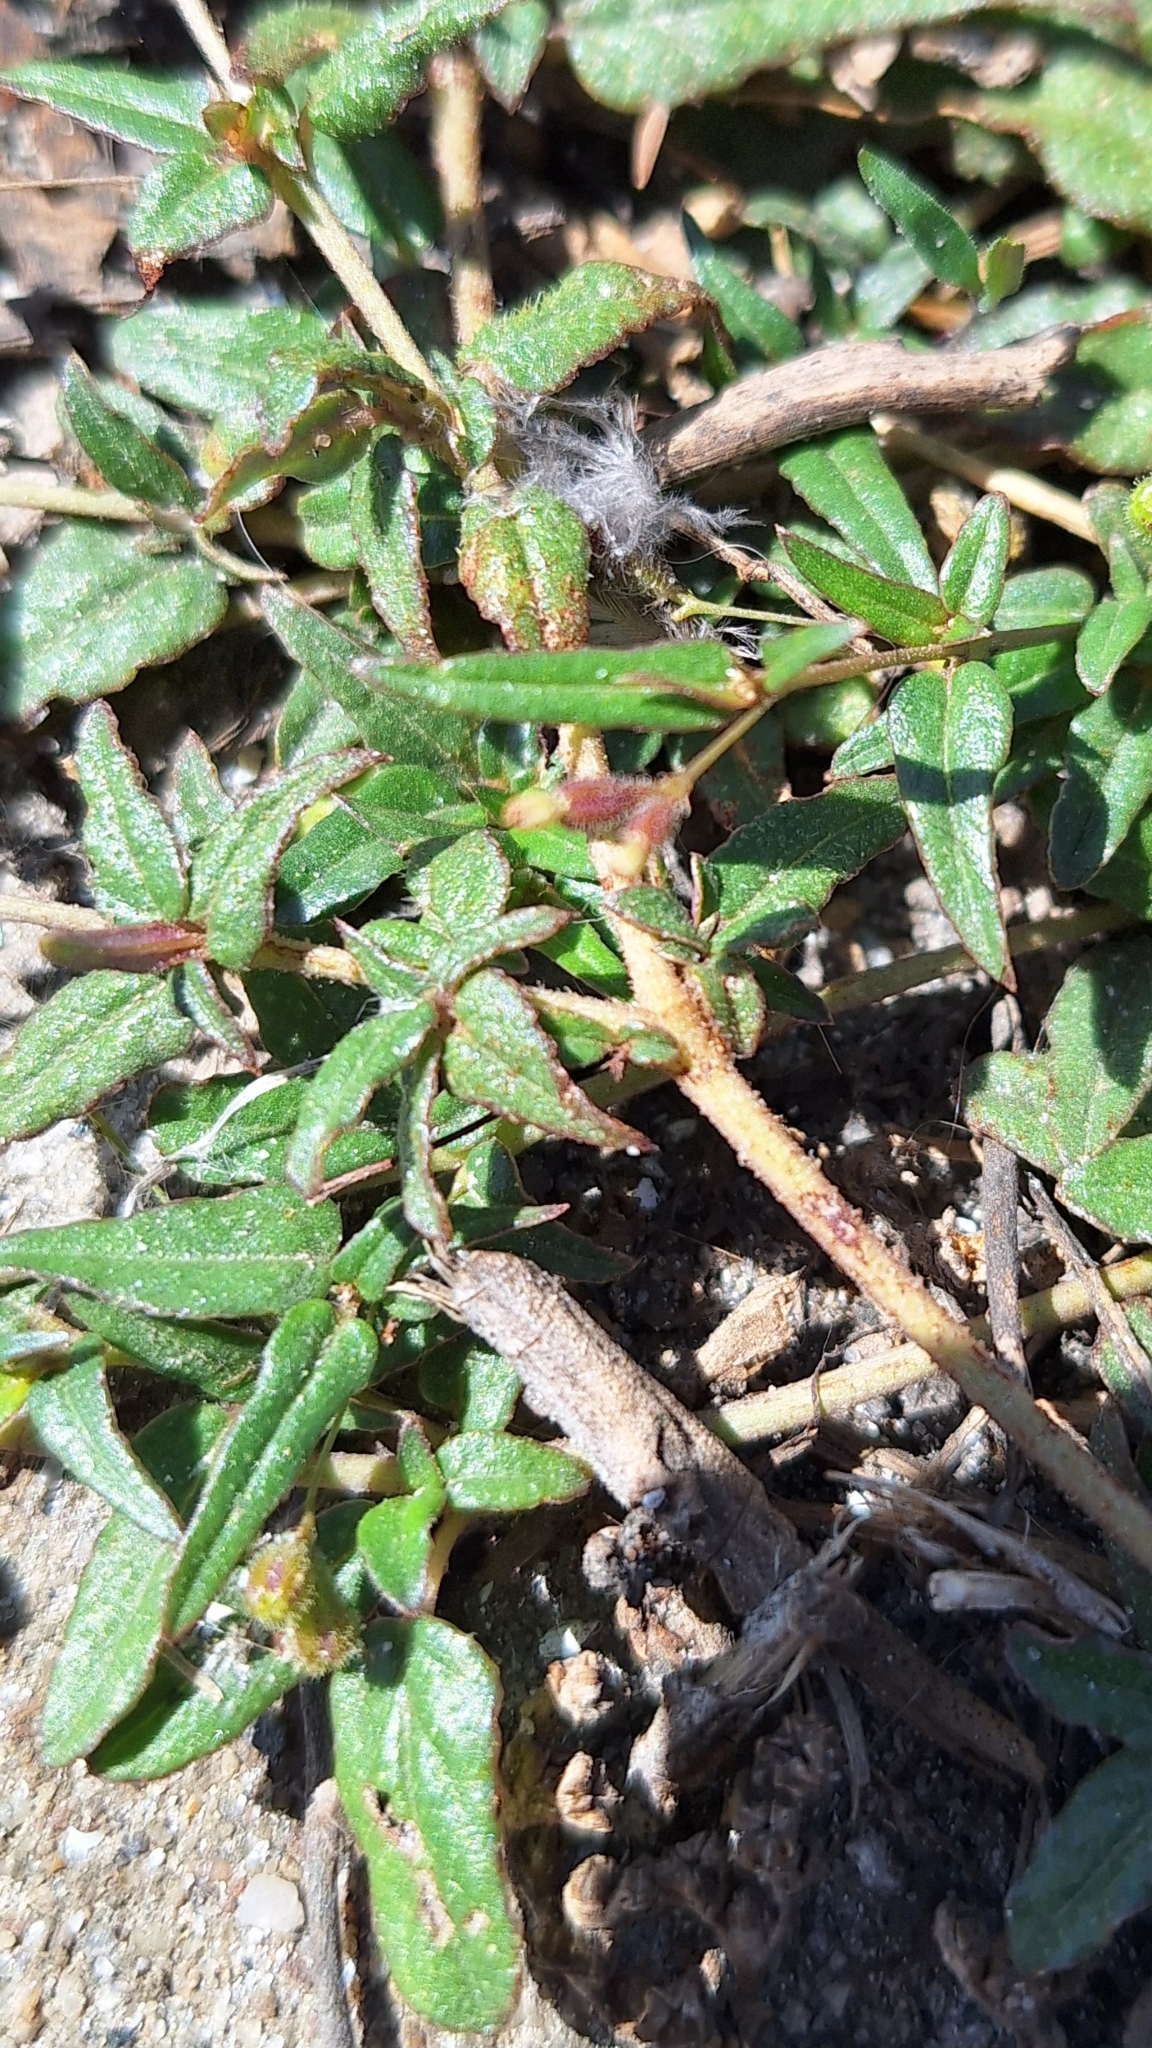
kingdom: Plantae
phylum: Tracheophyta
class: Magnoliopsida
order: Caryophyllales
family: Nyctaginaceae
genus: Boerhavia
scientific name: Boerhavia dominii
